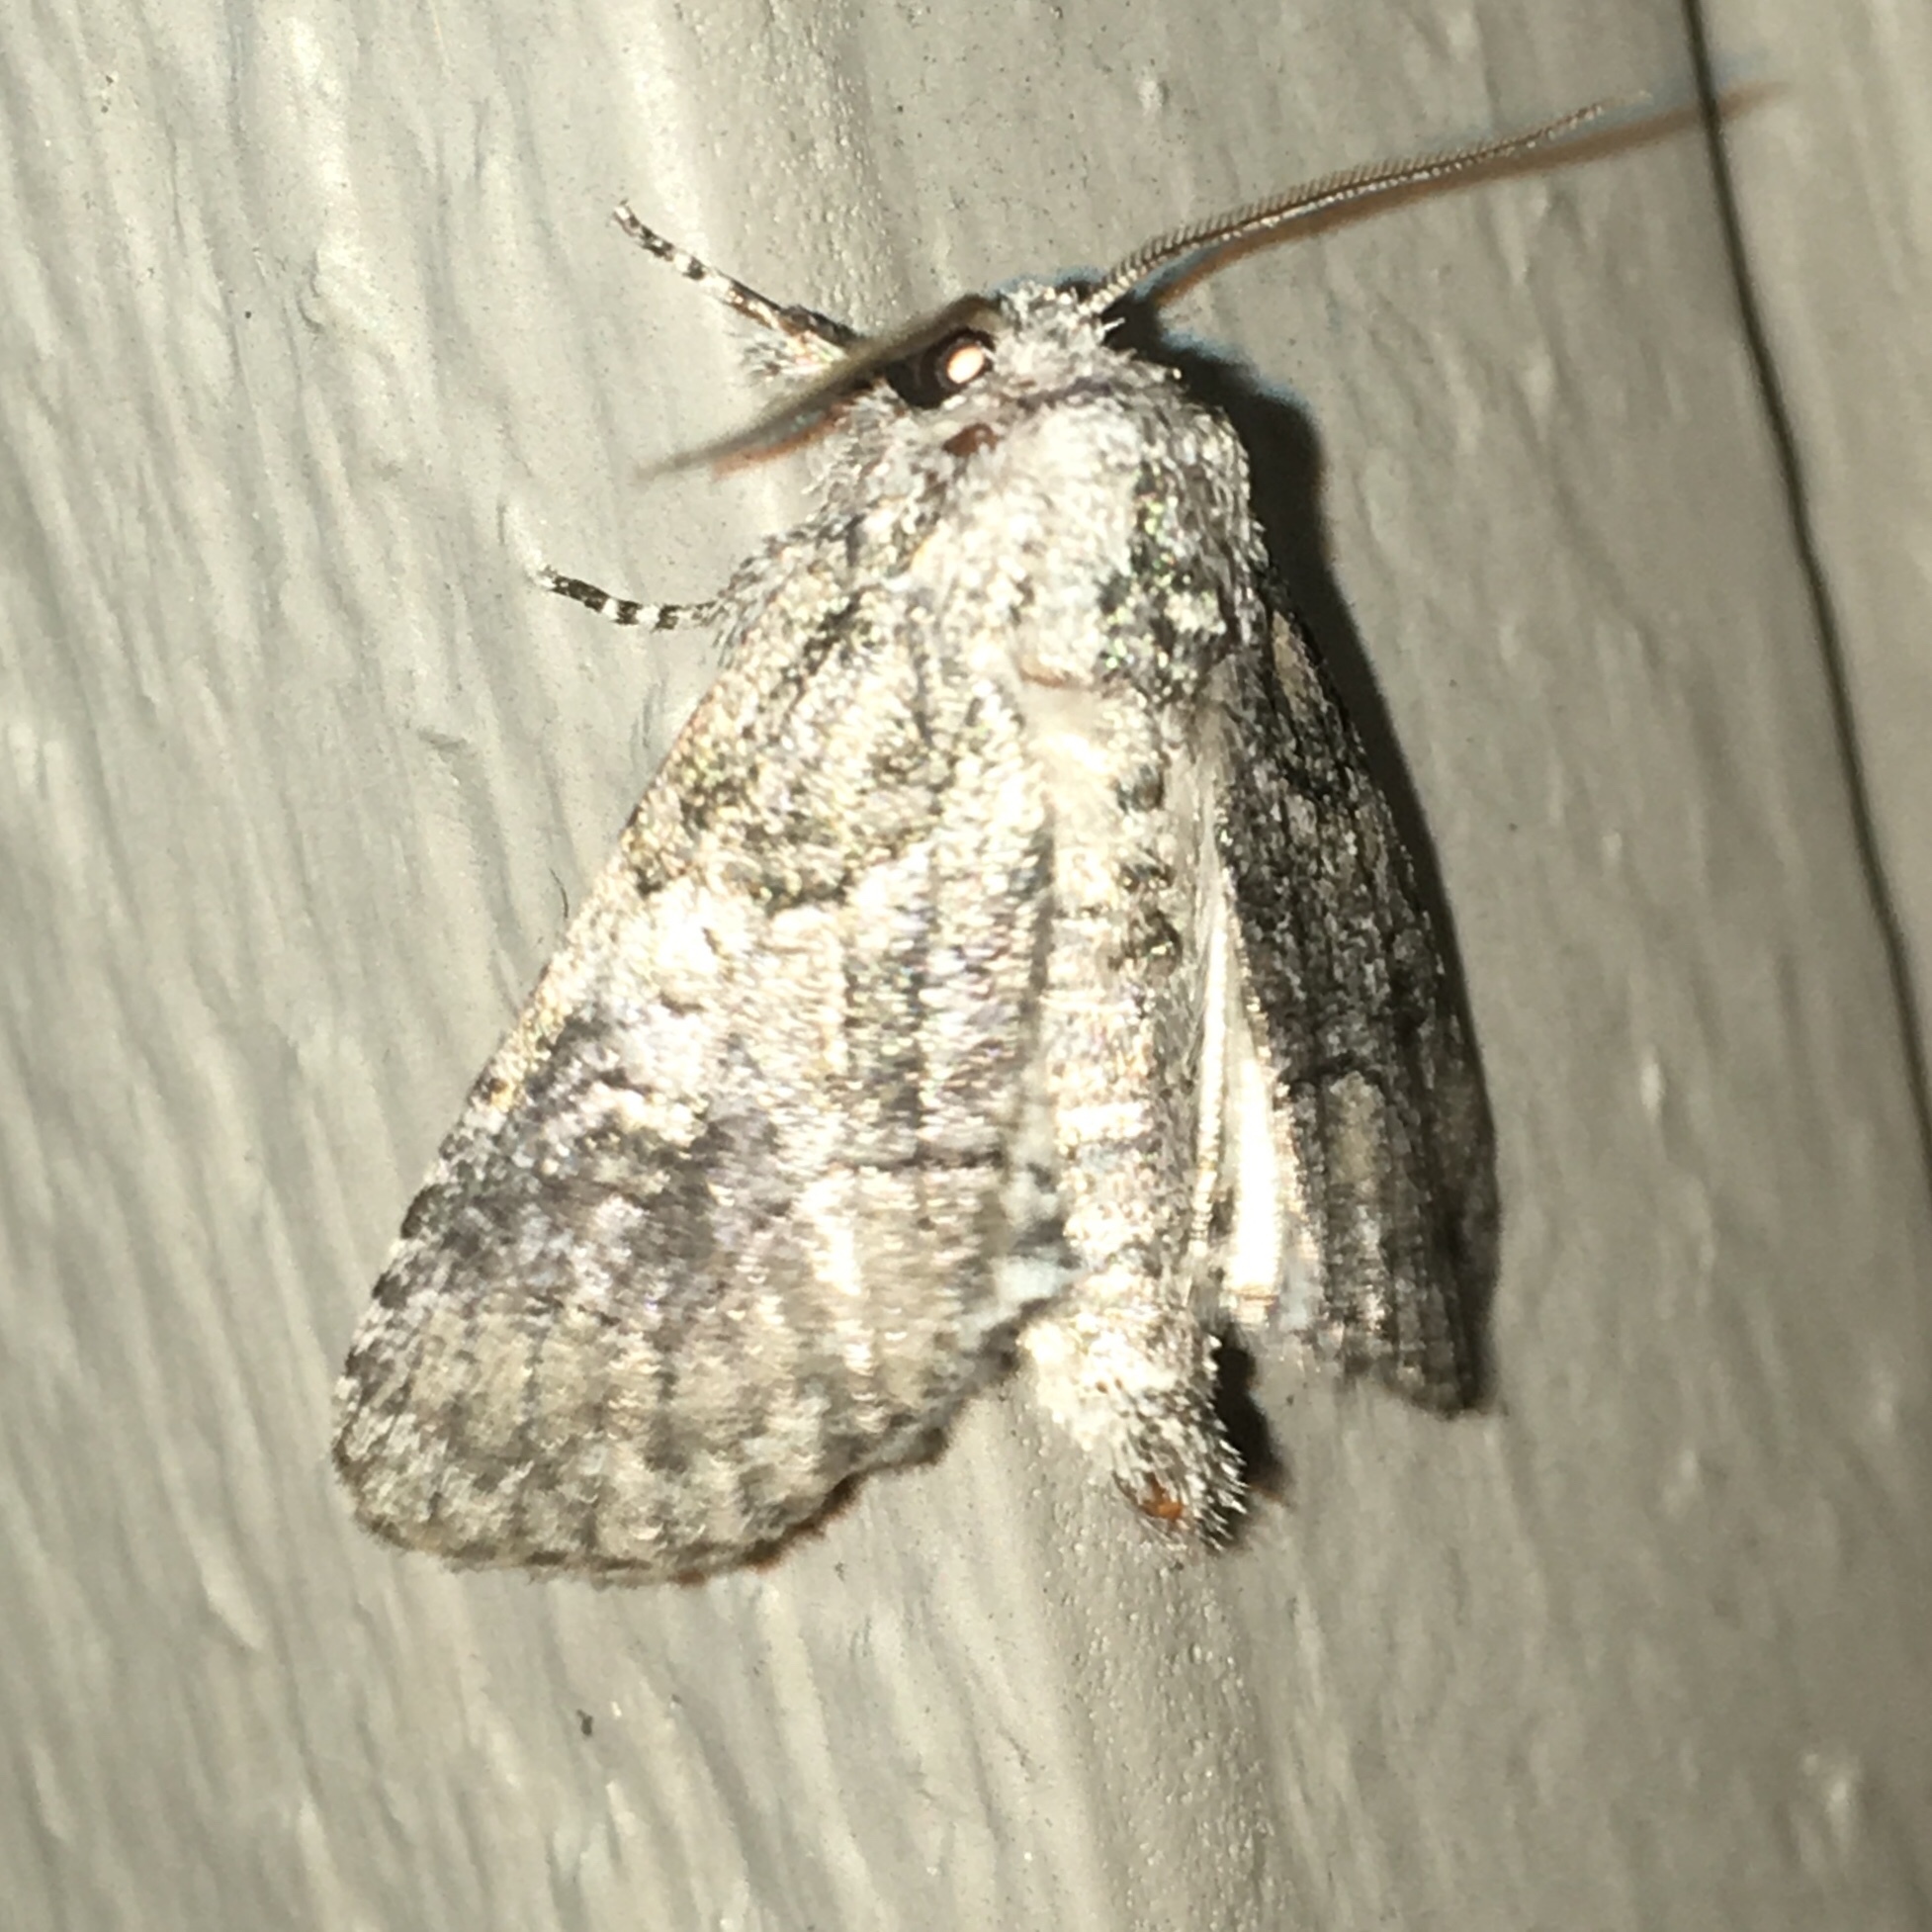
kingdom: Animalia
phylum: Arthropoda
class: Insecta
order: Lepidoptera
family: Noctuidae
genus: Raphia
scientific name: Raphia frater
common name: Brother
